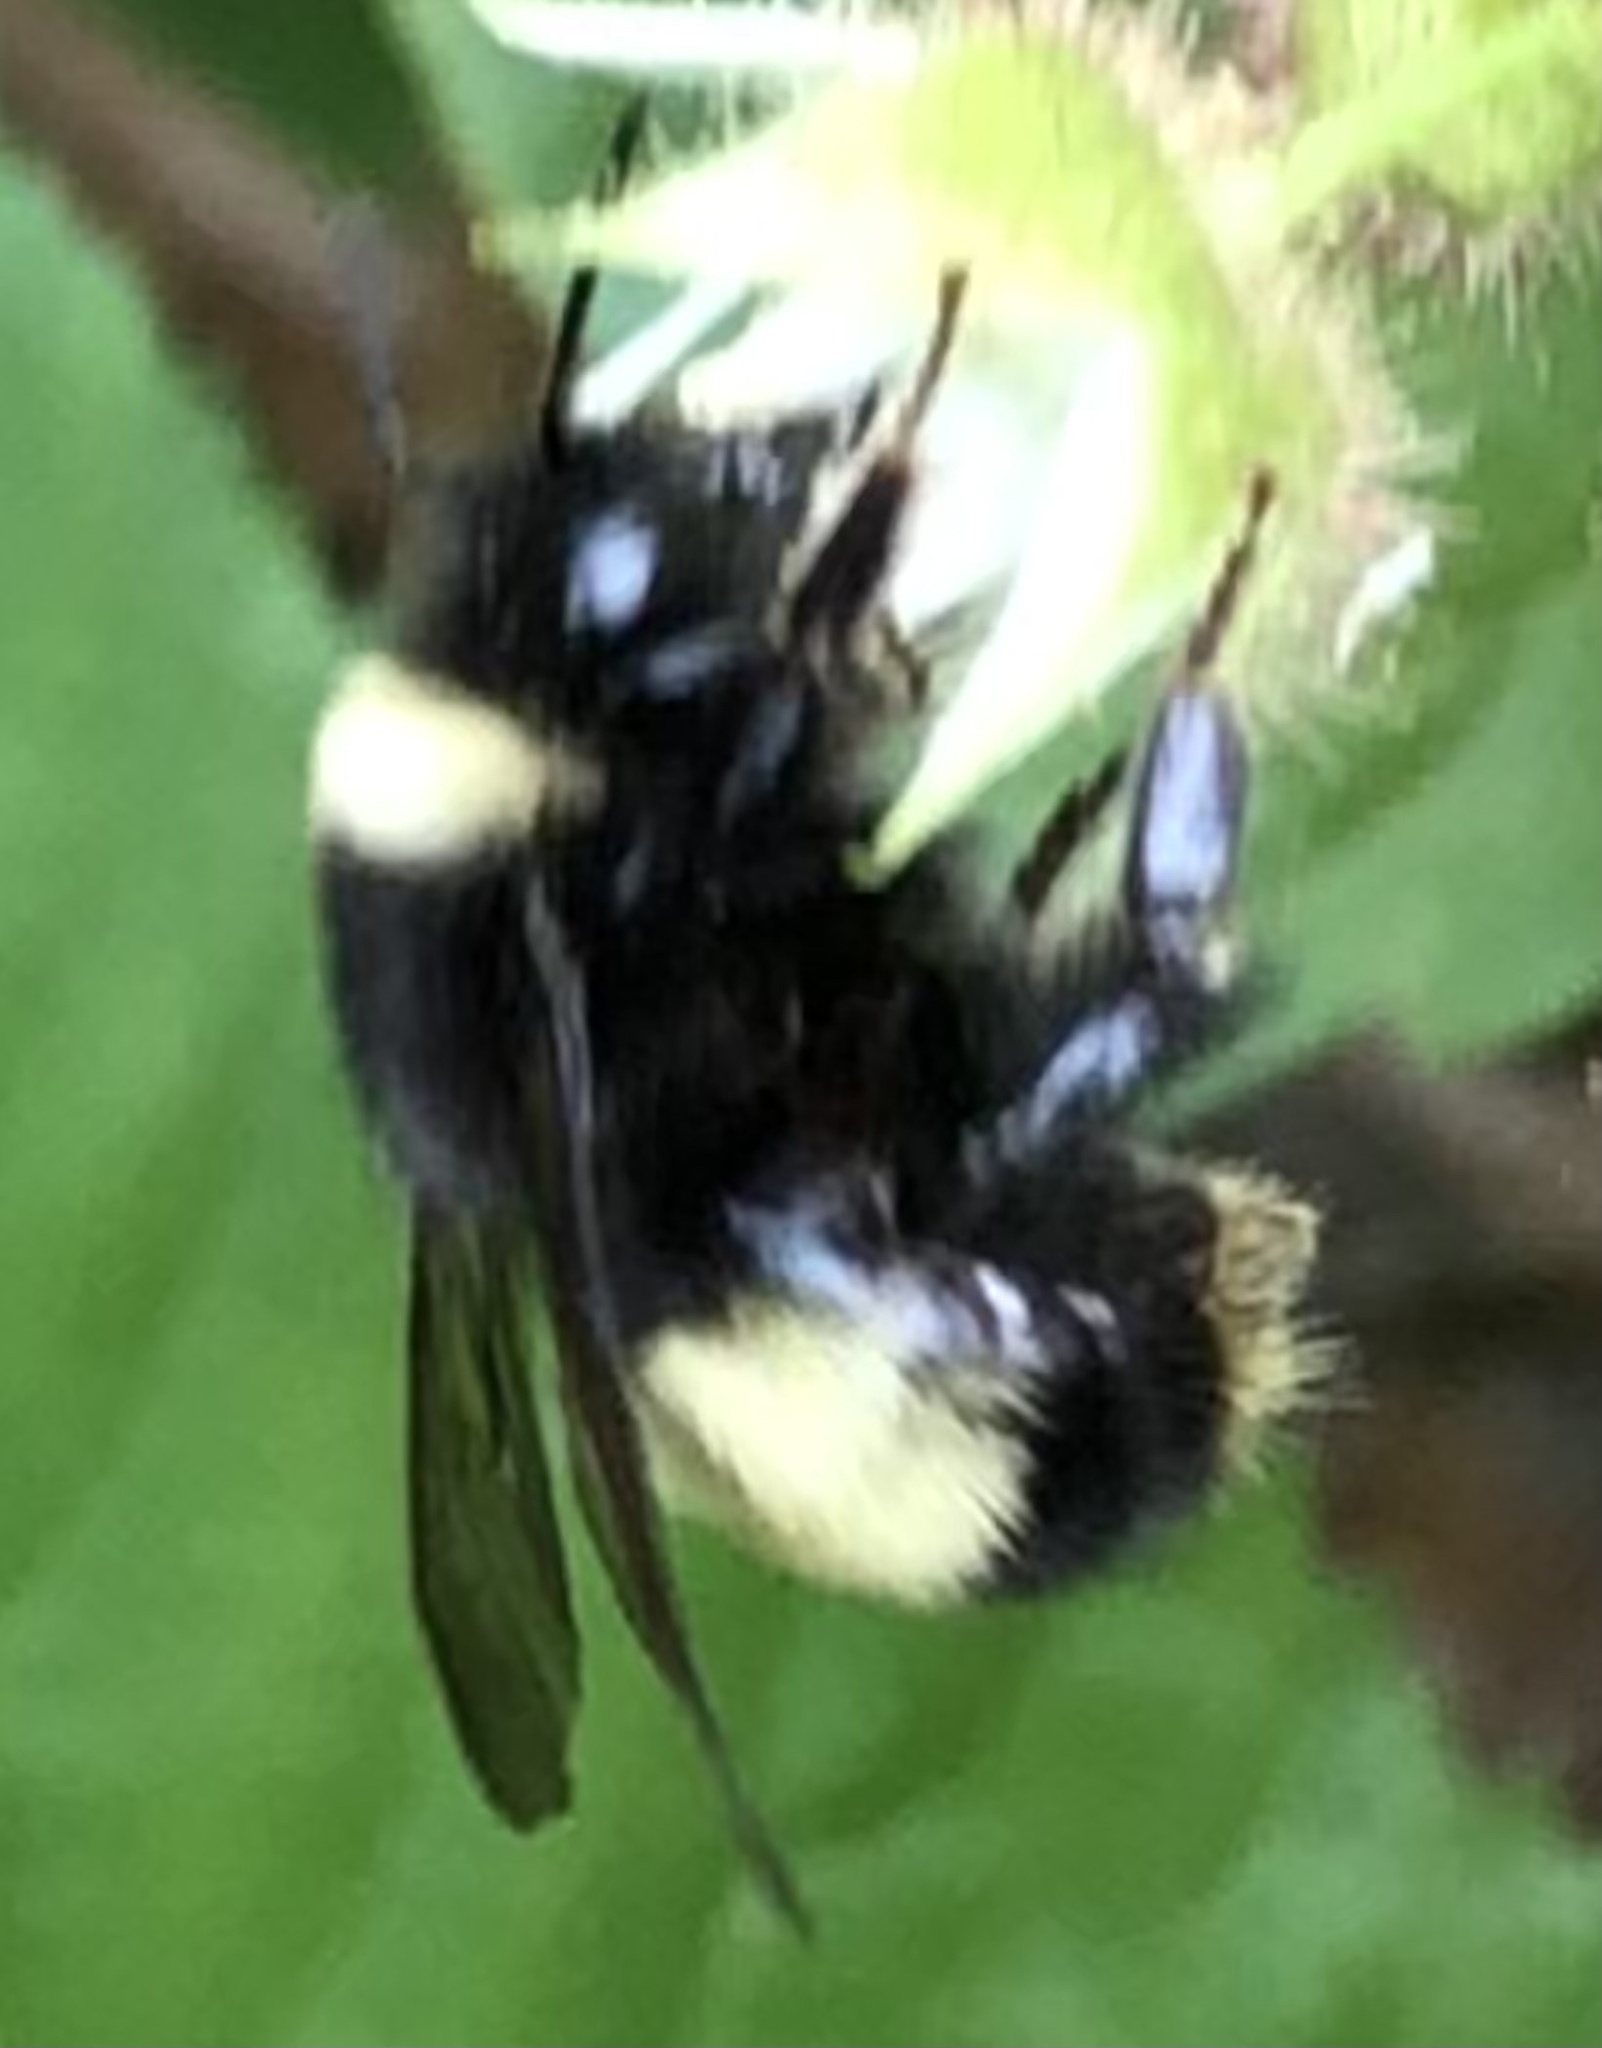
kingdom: Animalia
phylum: Arthropoda
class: Insecta
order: Hymenoptera
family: Apidae
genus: Bombus
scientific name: Bombus terricola
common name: Yellow-banded bumble bee
